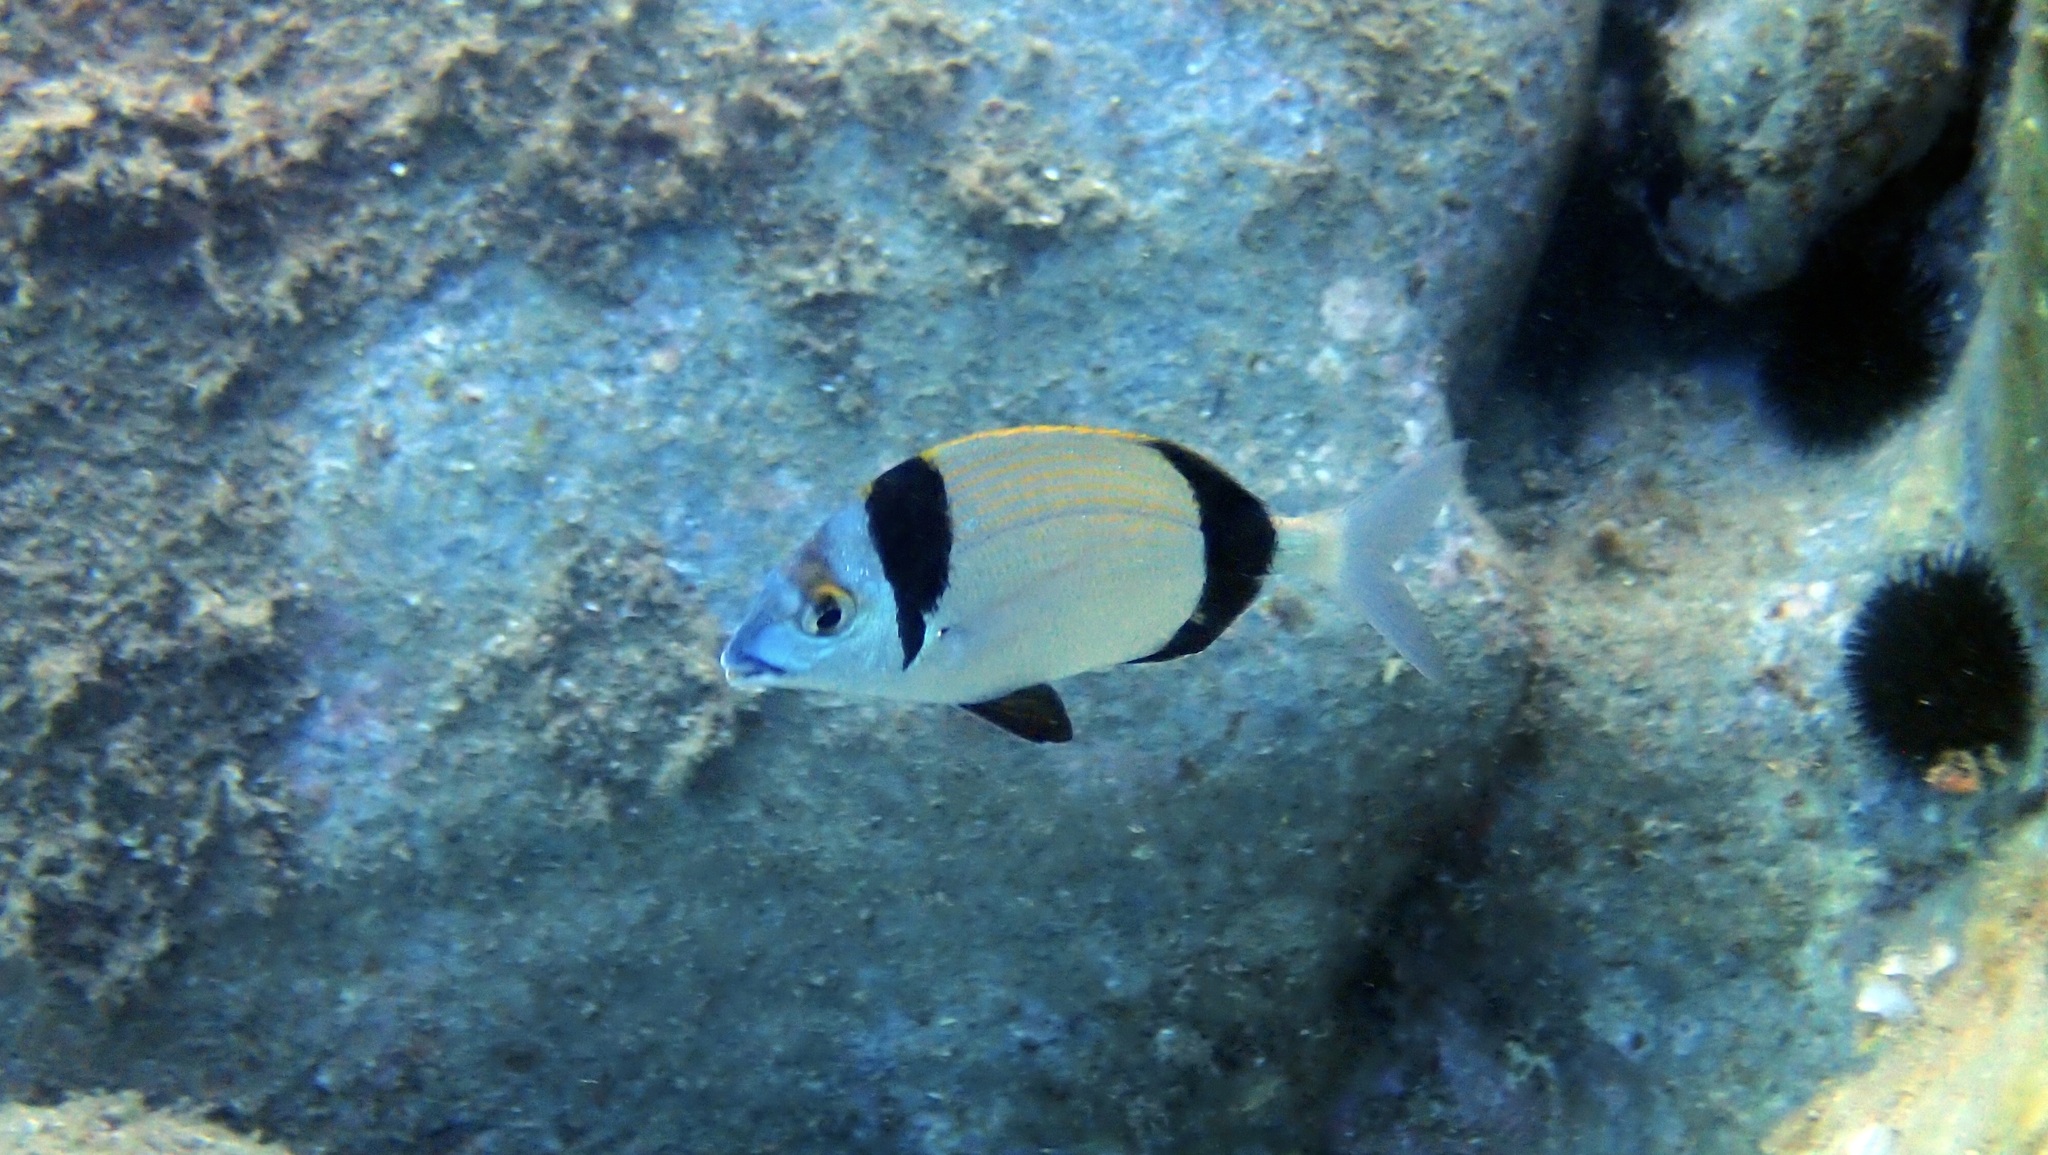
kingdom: Animalia
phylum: Chordata
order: Perciformes
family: Sparidae
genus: Diplodus
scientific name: Diplodus vulgaris
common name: Common two-banded seabream
